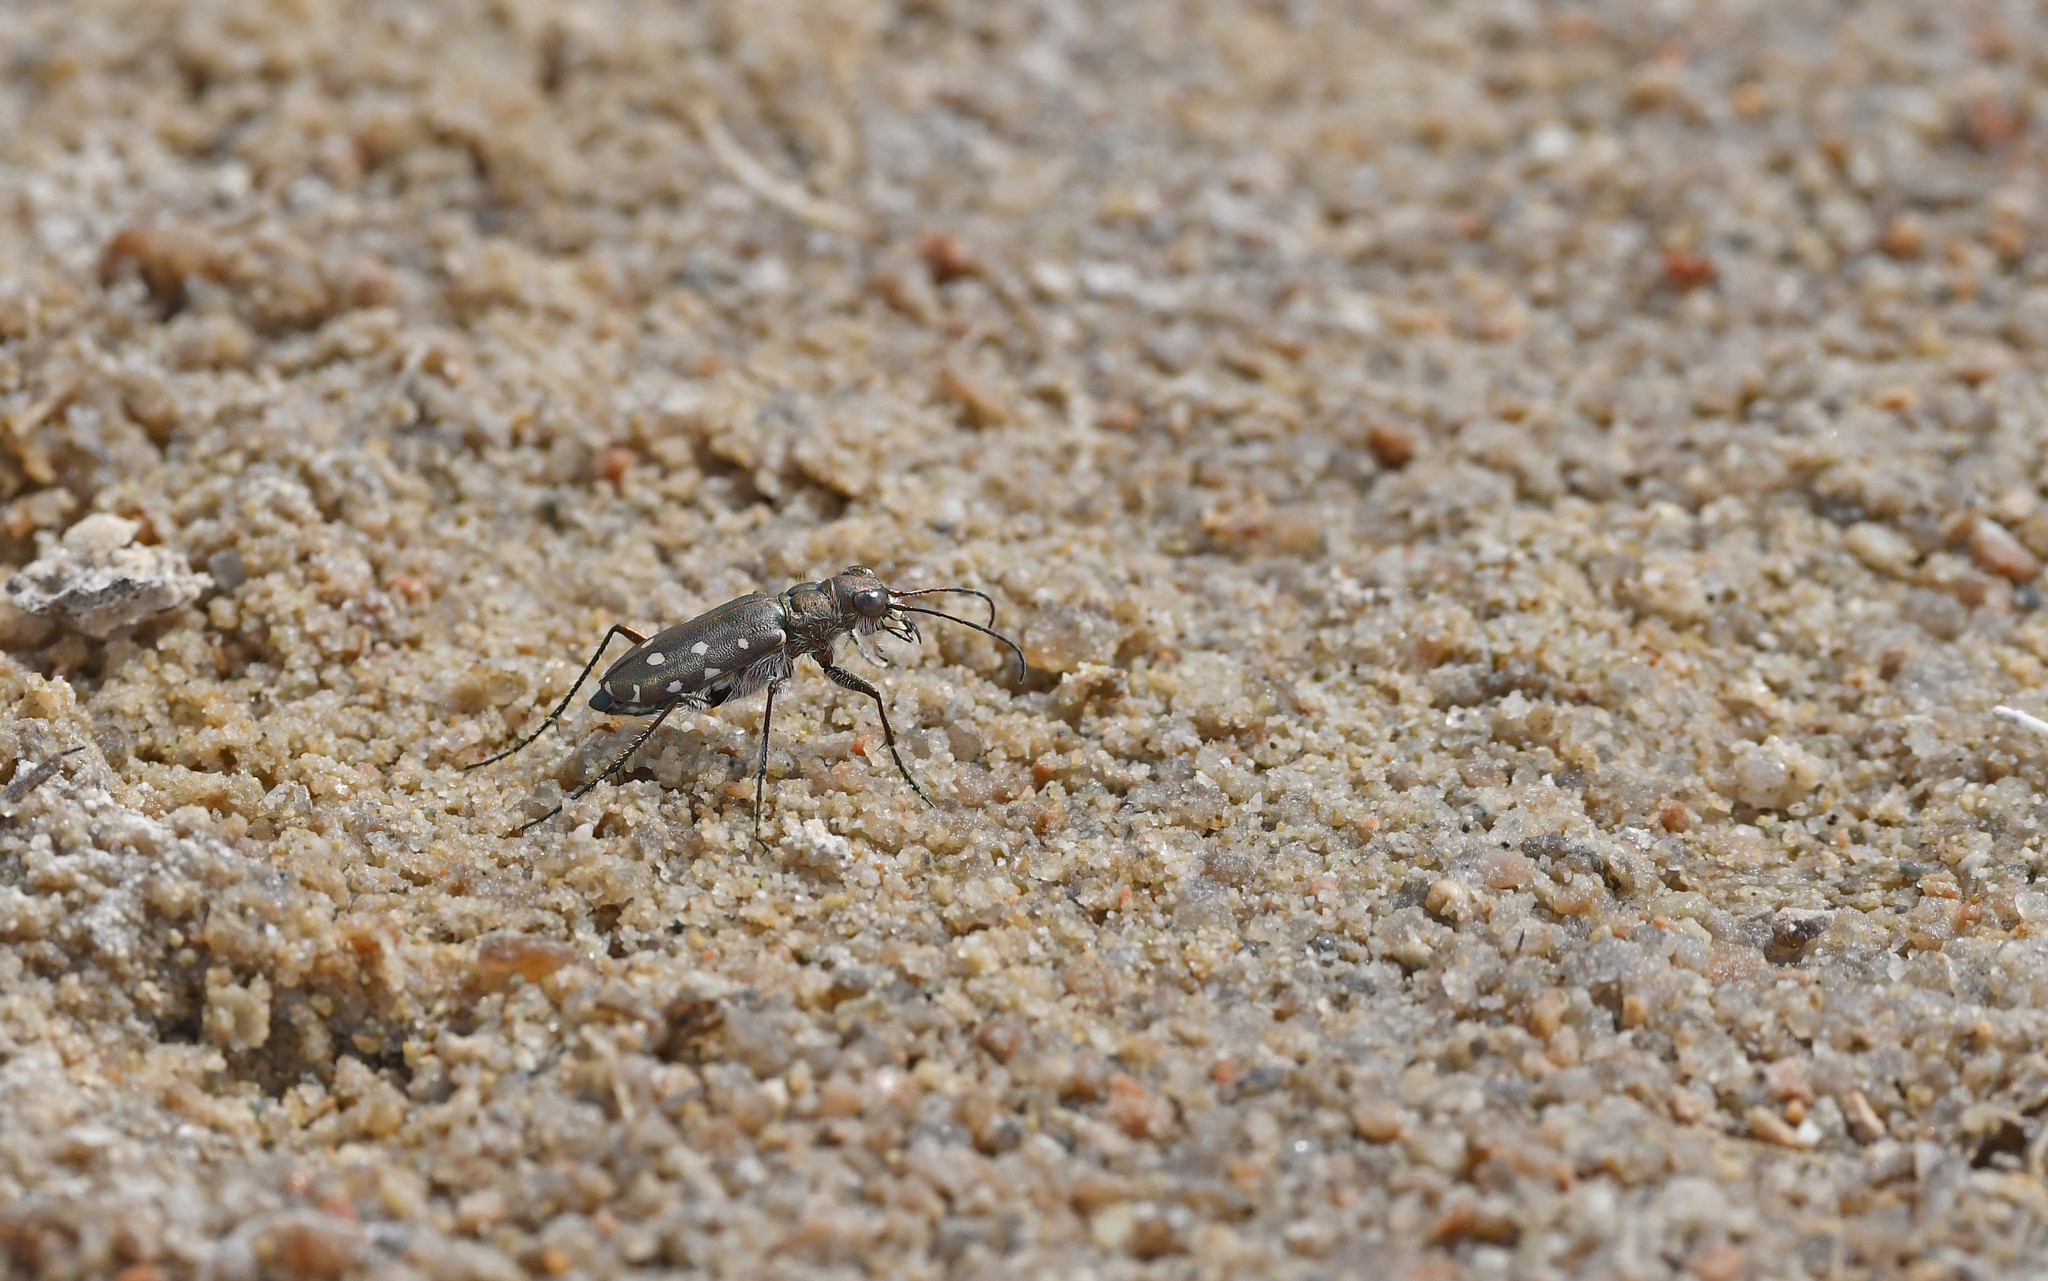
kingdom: Animalia
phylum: Arthropoda
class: Insecta
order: Coleoptera
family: Carabidae
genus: Cicindela
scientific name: Cicindela littoralis
